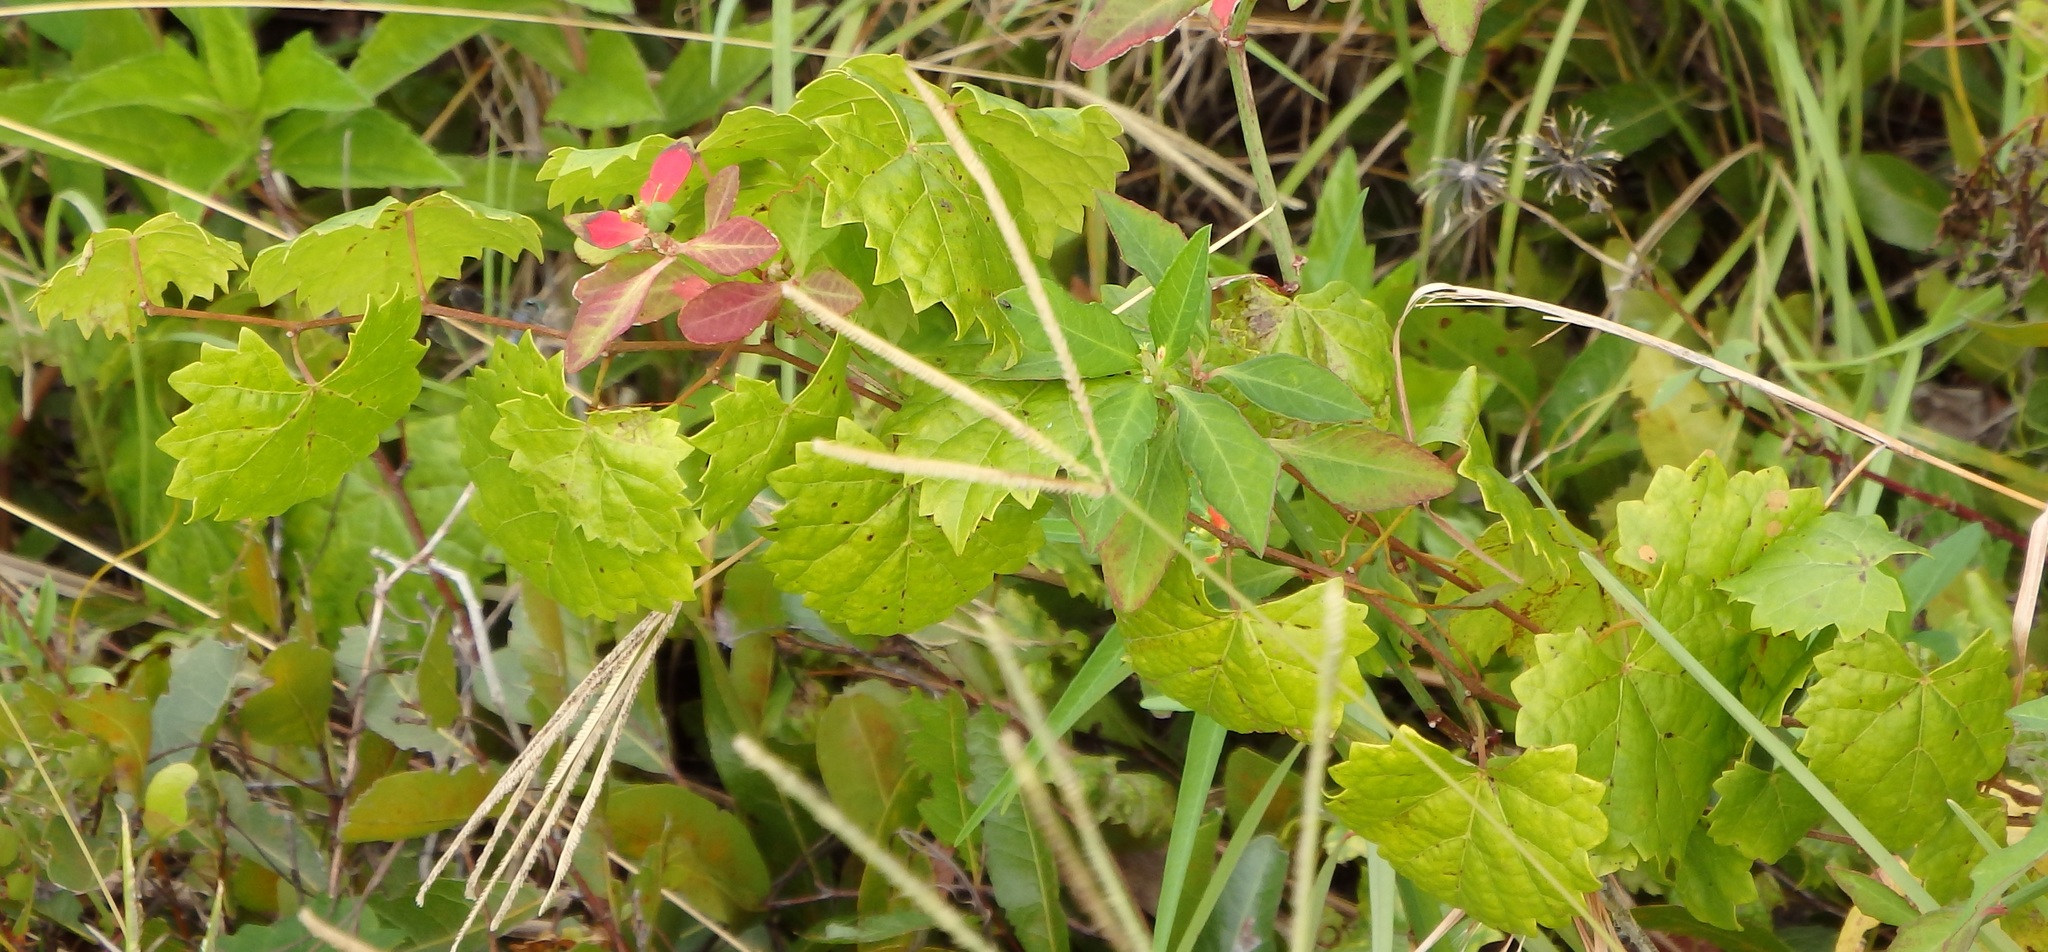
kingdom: Plantae
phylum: Tracheophyta
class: Magnoliopsida
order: Vitales
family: Vitaceae
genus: Vitis
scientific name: Vitis rotundifolia
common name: Muscadine grape
